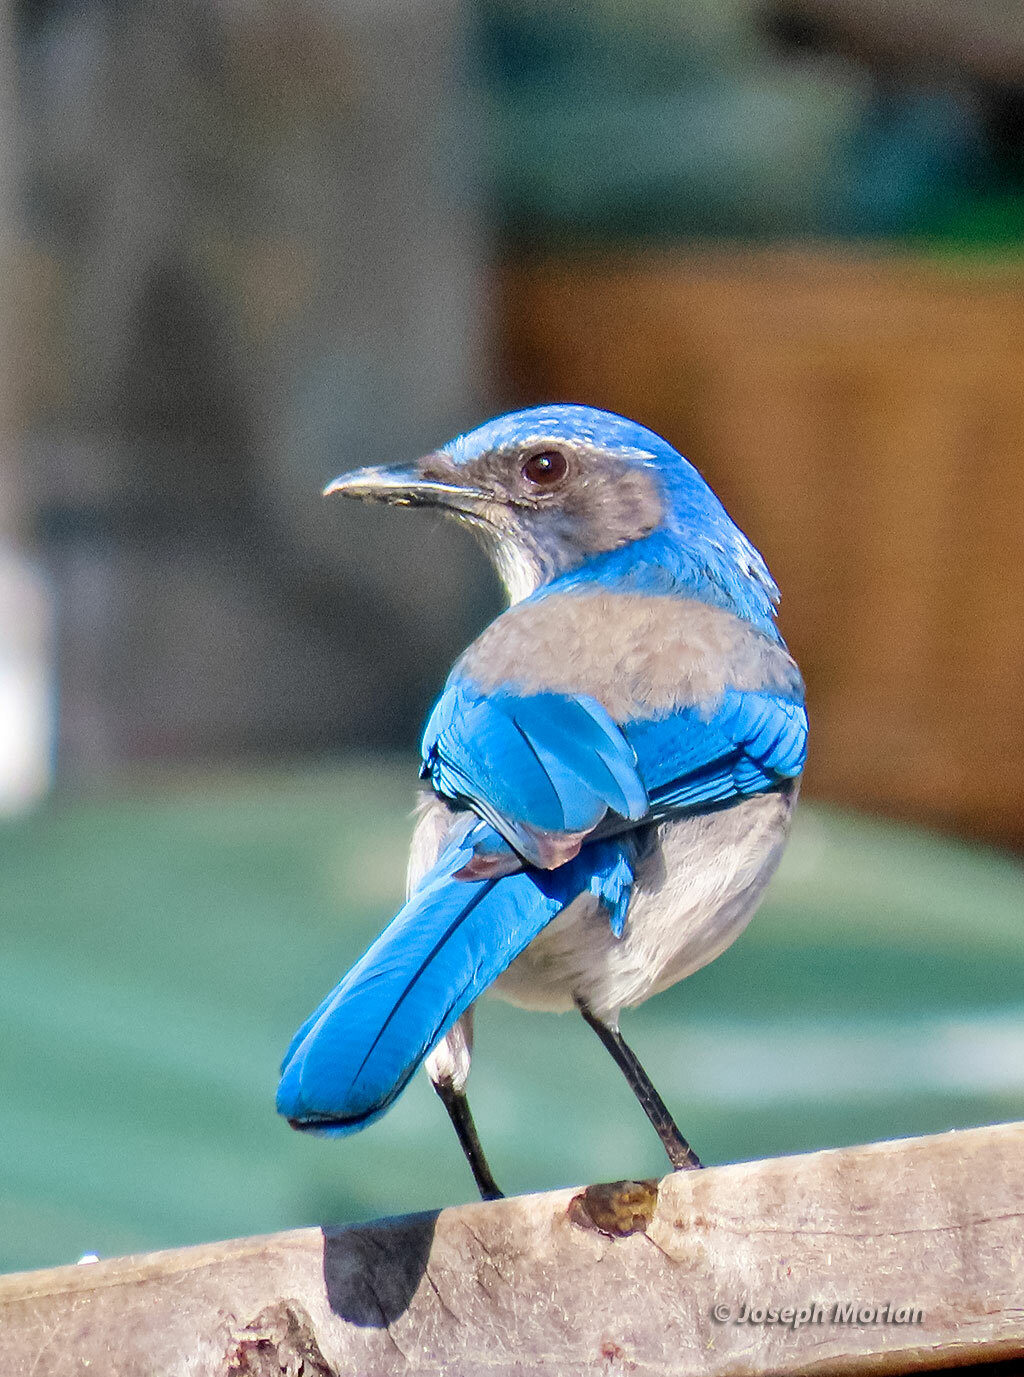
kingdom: Animalia
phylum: Chordata
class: Aves
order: Passeriformes
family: Corvidae
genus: Aphelocoma
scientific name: Aphelocoma californica
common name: California scrub-jay
